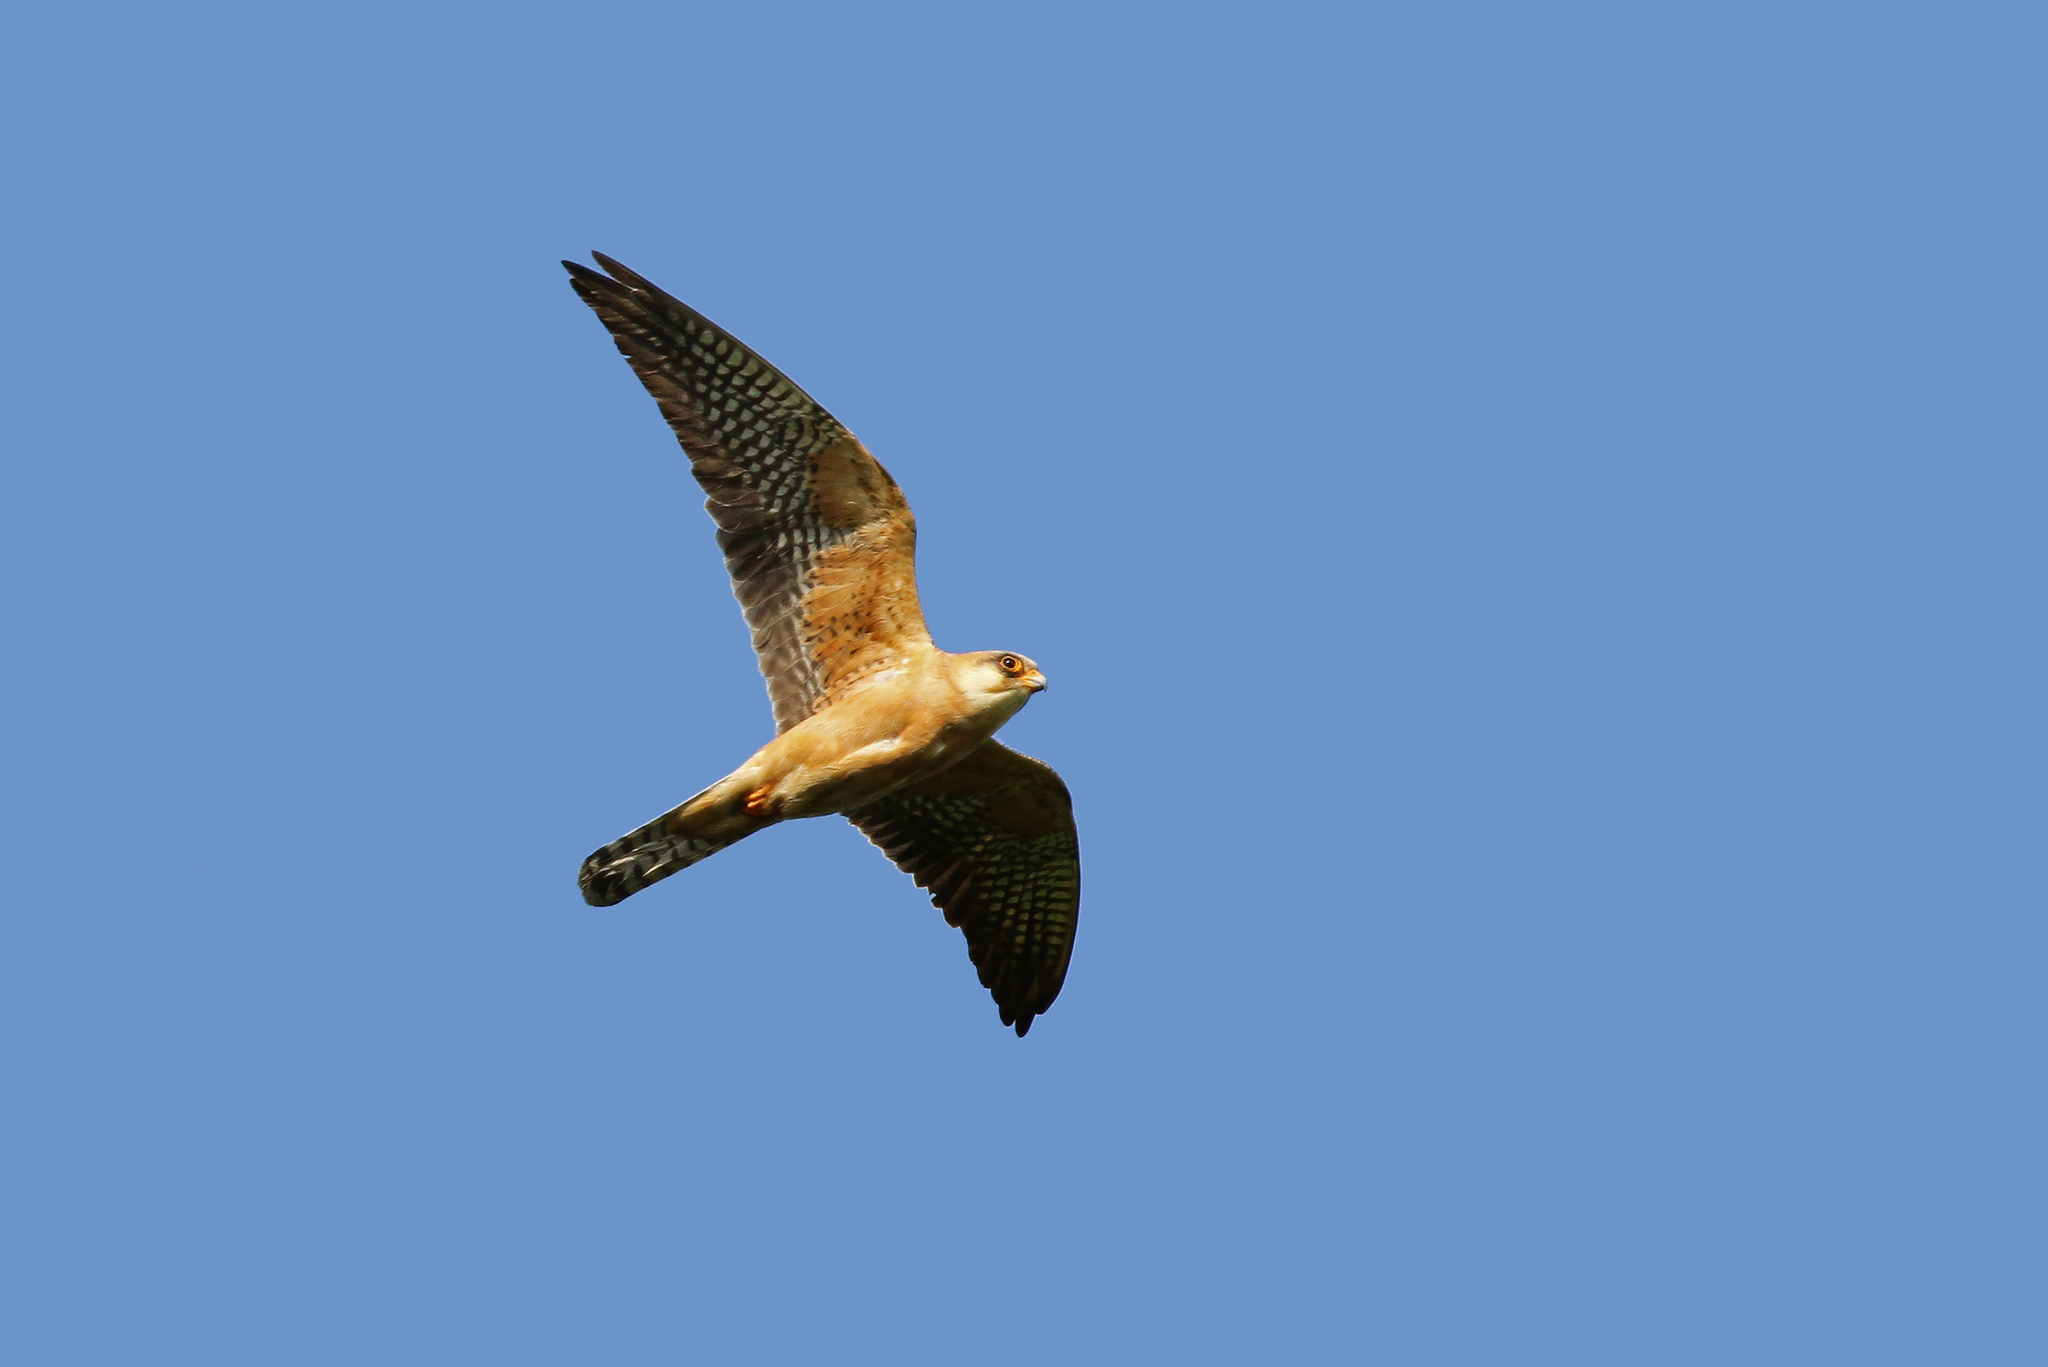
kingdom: Animalia
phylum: Chordata
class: Aves
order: Falconiformes
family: Falconidae
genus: Falco
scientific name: Falco vespertinus
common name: Red-footed falcon
